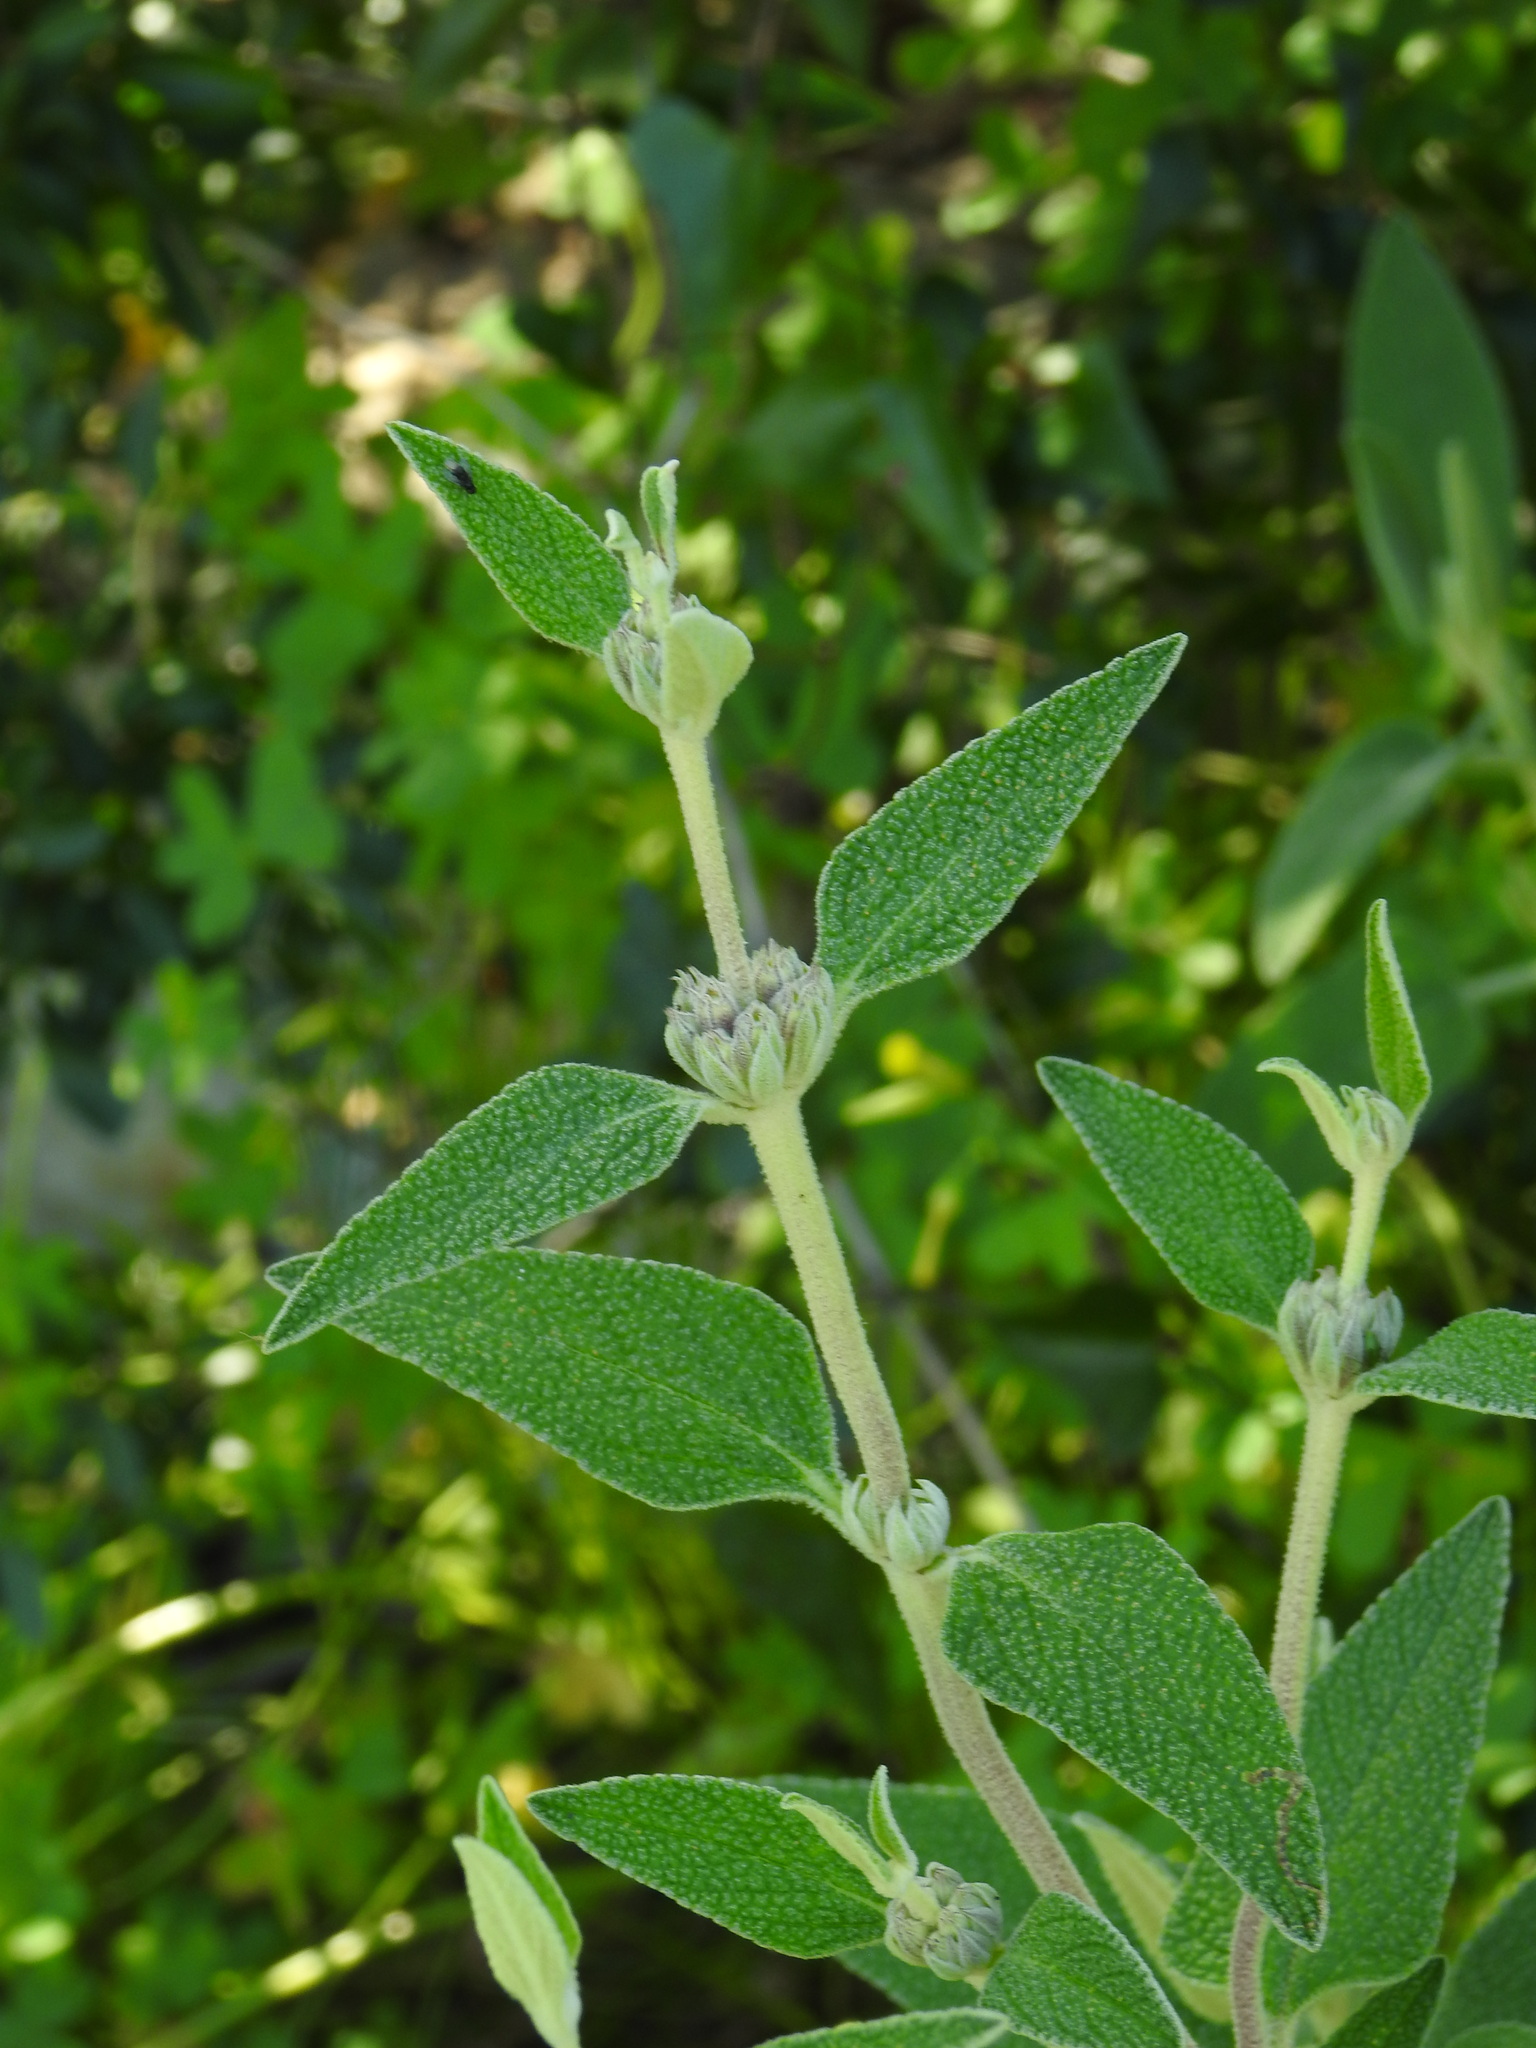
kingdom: Plantae
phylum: Tracheophyta
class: Magnoliopsida
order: Lamiales
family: Lamiaceae
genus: Phlomis
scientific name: Phlomis purpurea
